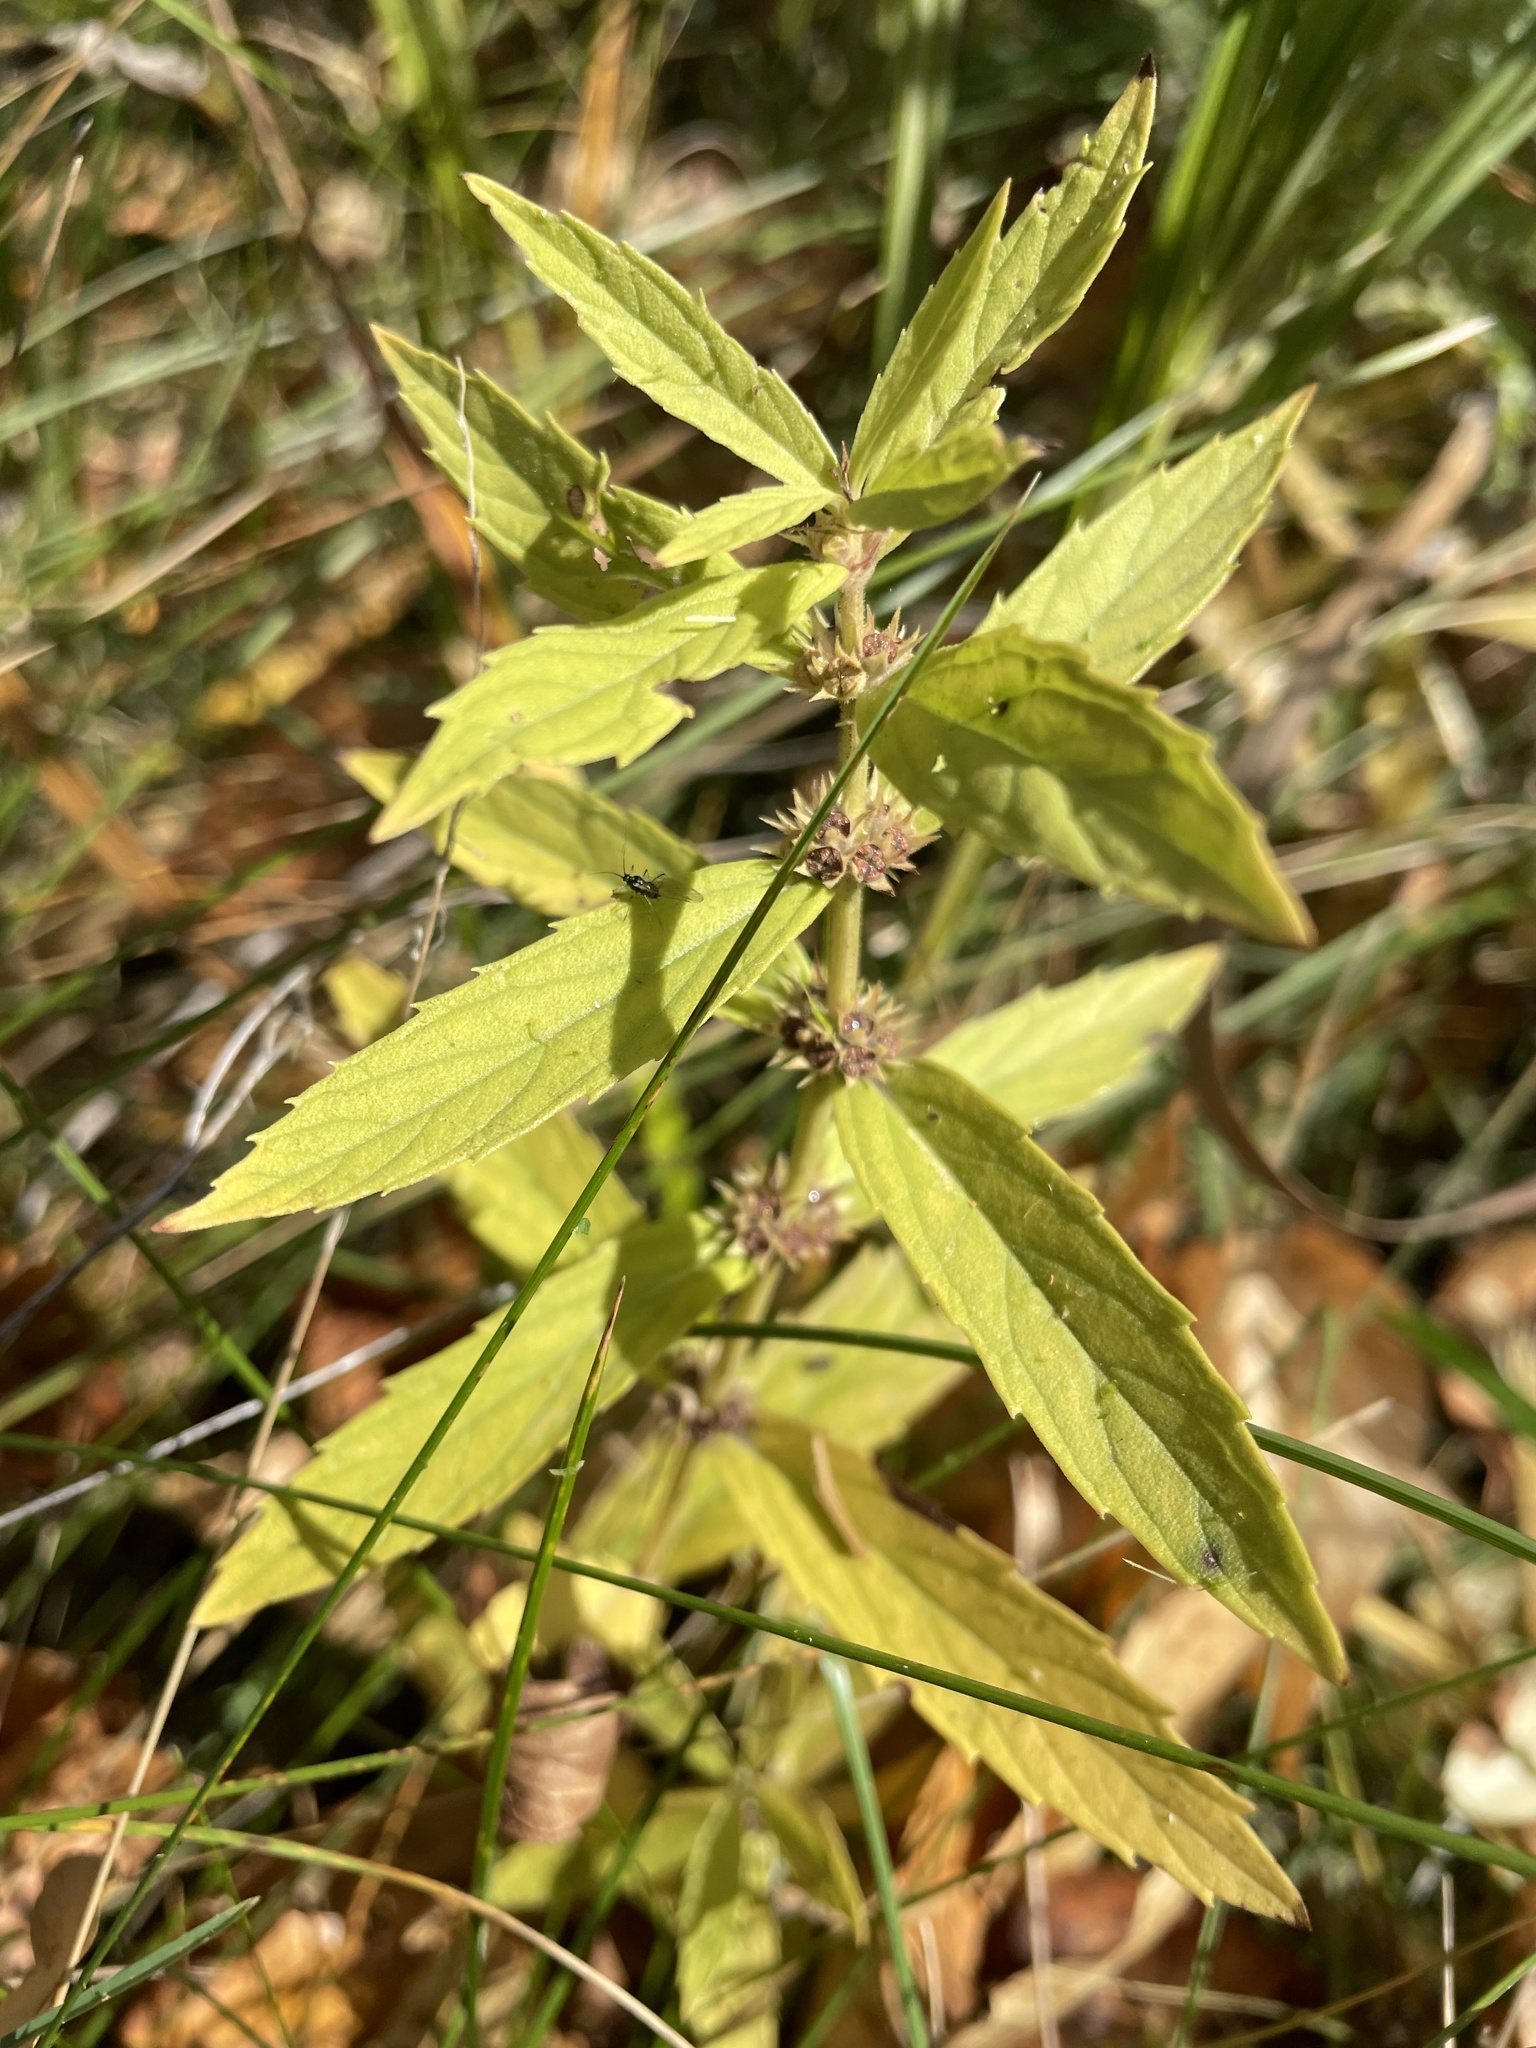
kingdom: Plantae
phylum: Tracheophyta
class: Magnoliopsida
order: Lamiales
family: Lamiaceae
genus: Lycopus
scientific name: Lycopus asper
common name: Rough water-horehound
